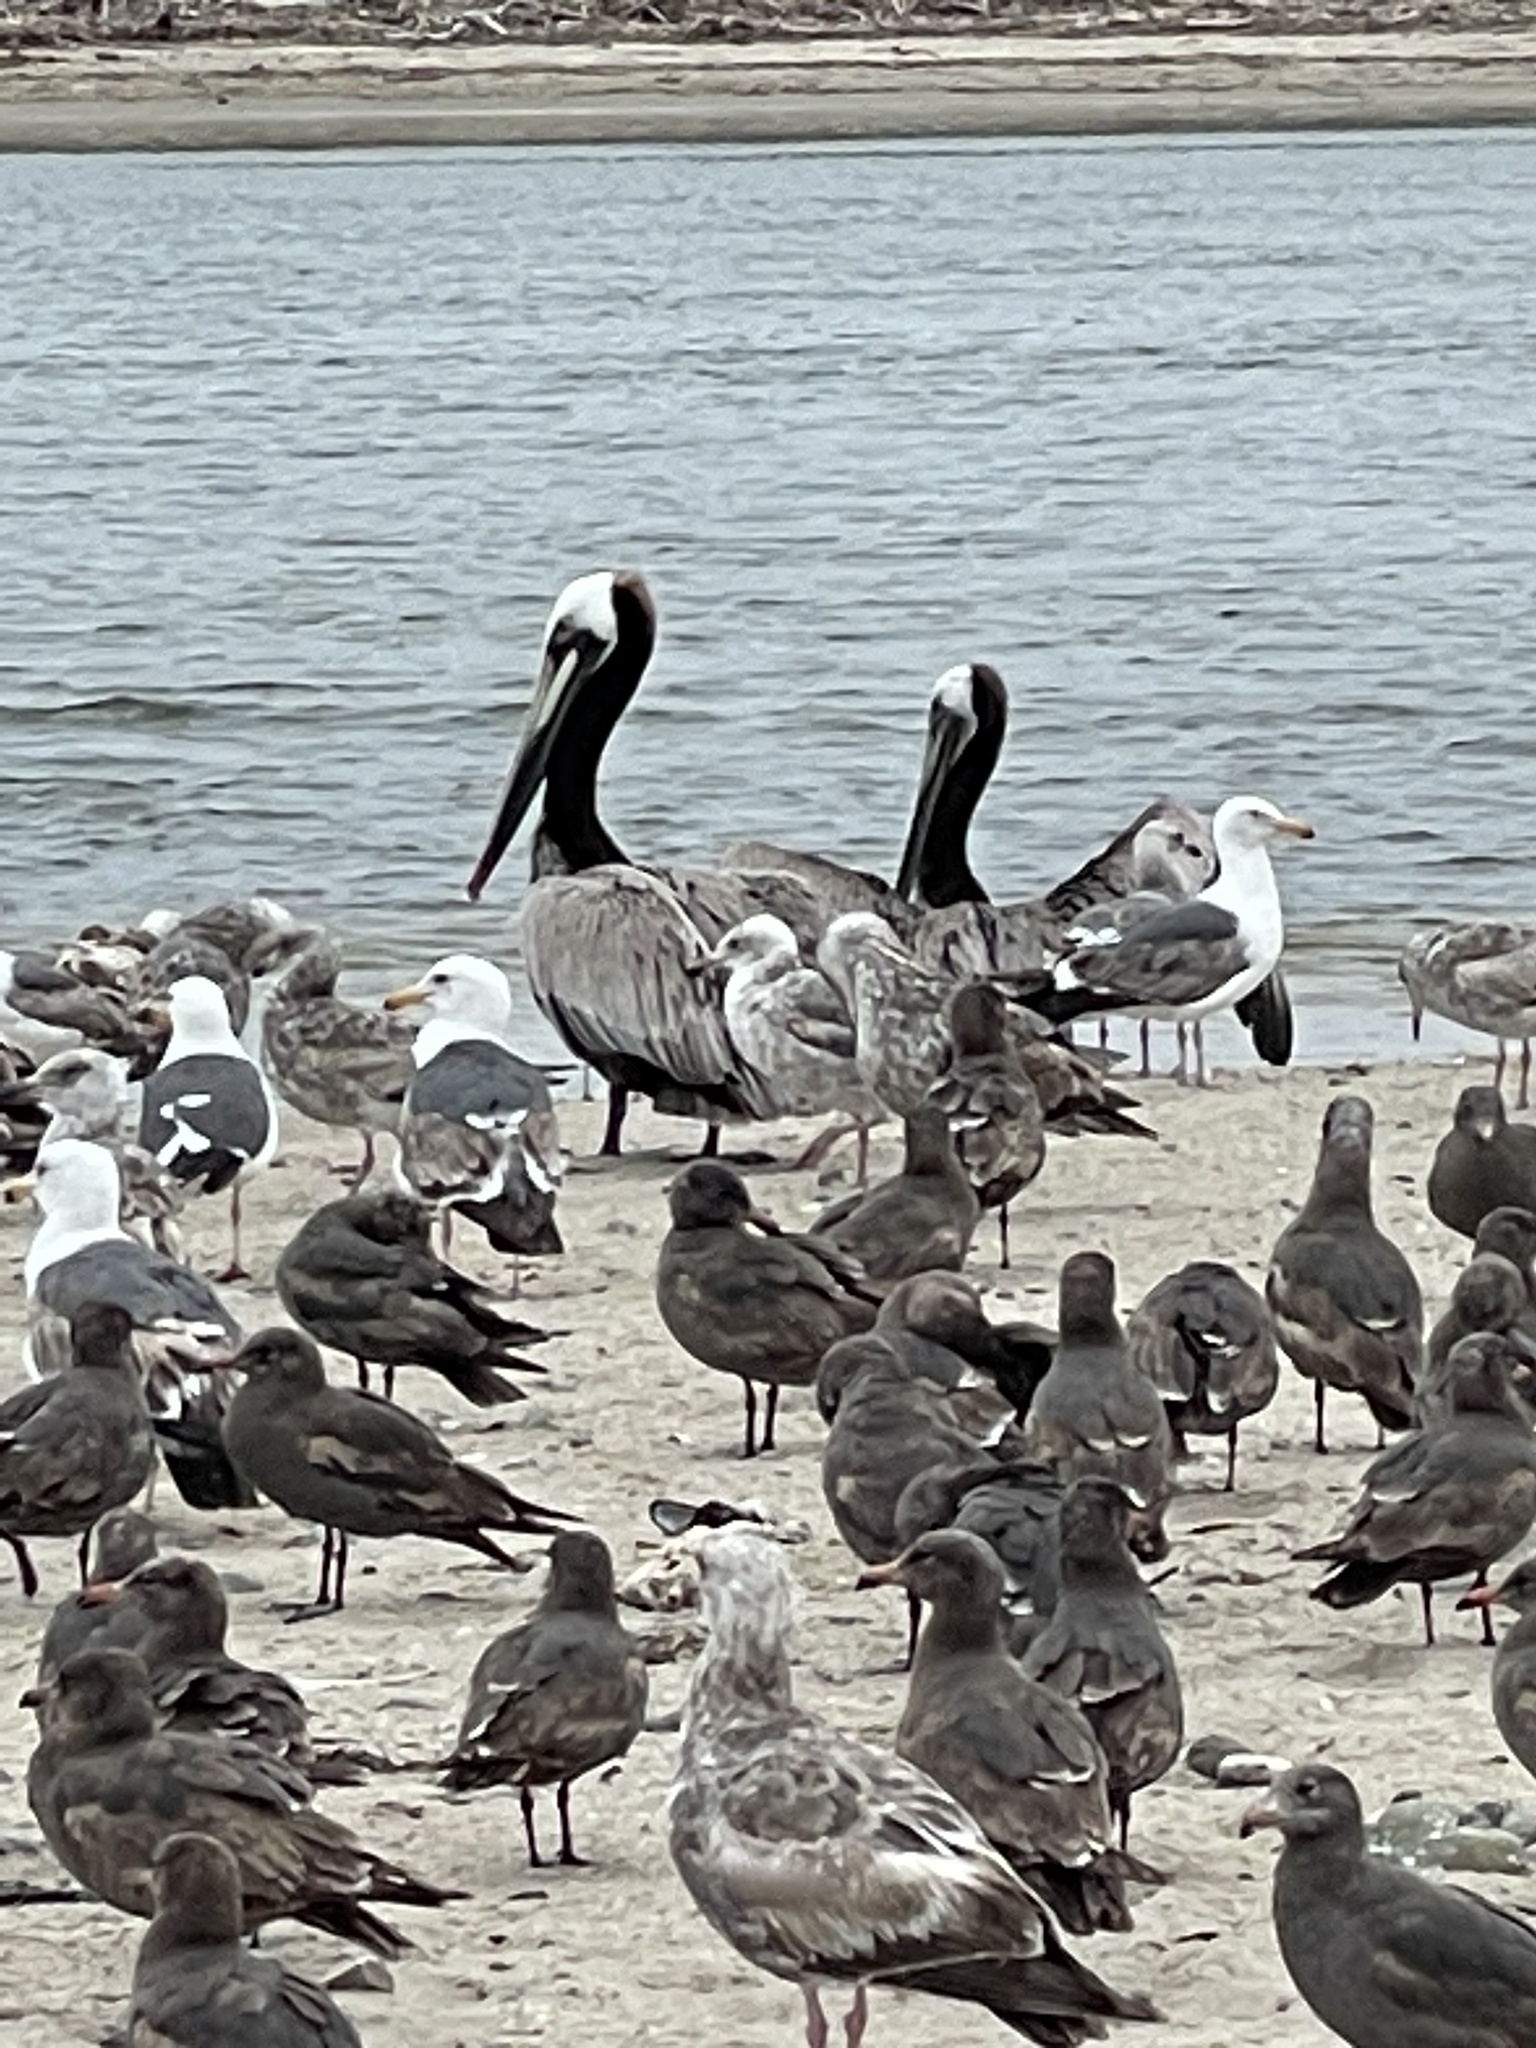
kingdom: Animalia
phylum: Chordata
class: Aves
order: Pelecaniformes
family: Pelecanidae
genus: Pelecanus
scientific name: Pelecanus occidentalis
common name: Brown pelican
